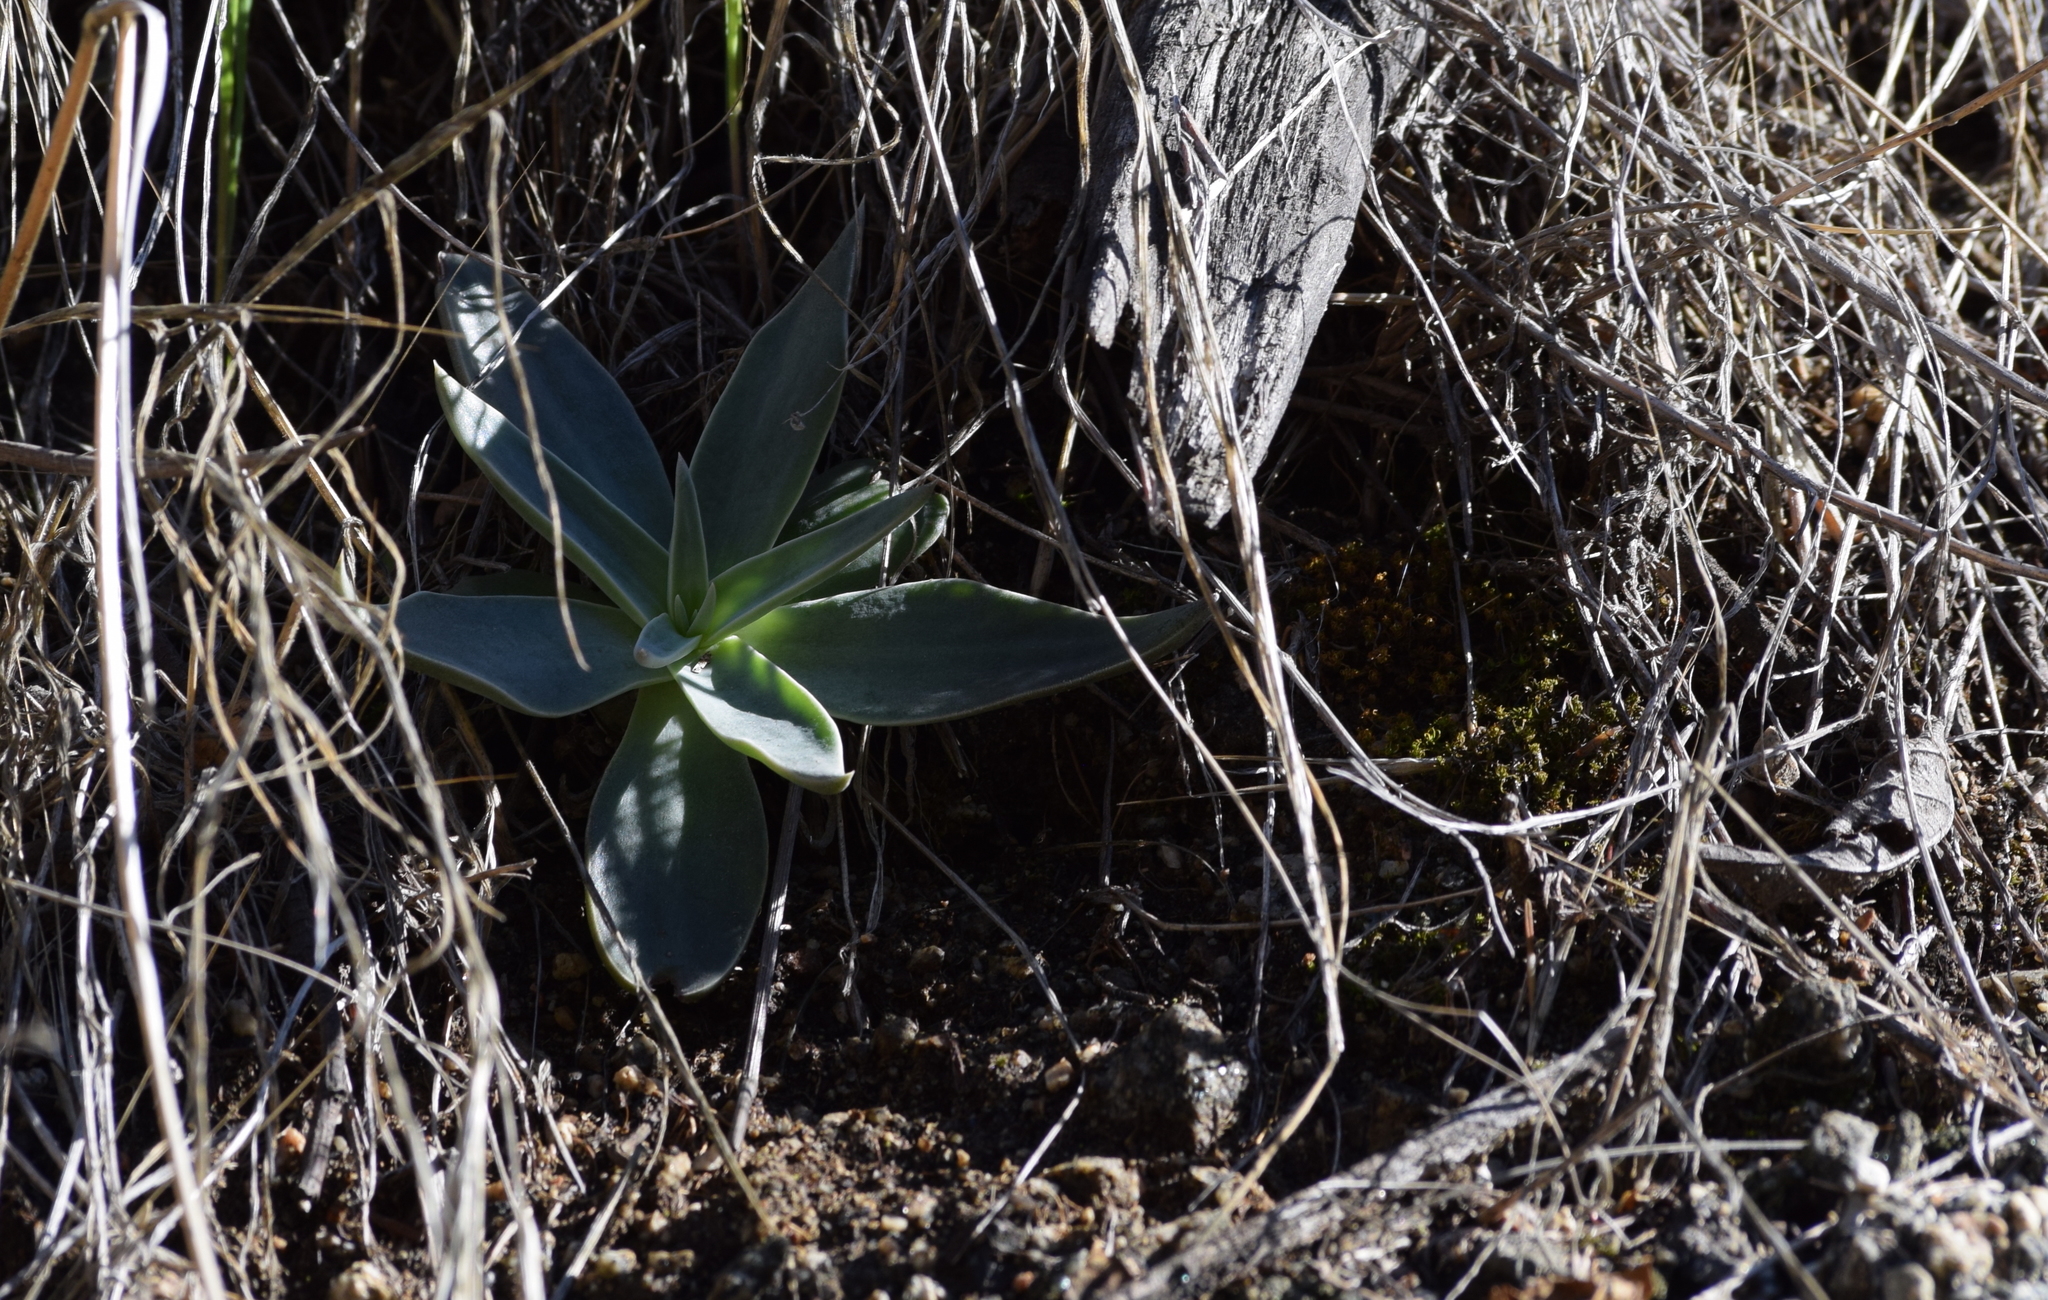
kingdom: Plantae
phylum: Tracheophyta
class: Magnoliopsida
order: Saxifragales
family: Crassulaceae
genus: Dudleya
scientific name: Dudleya lanceolata
